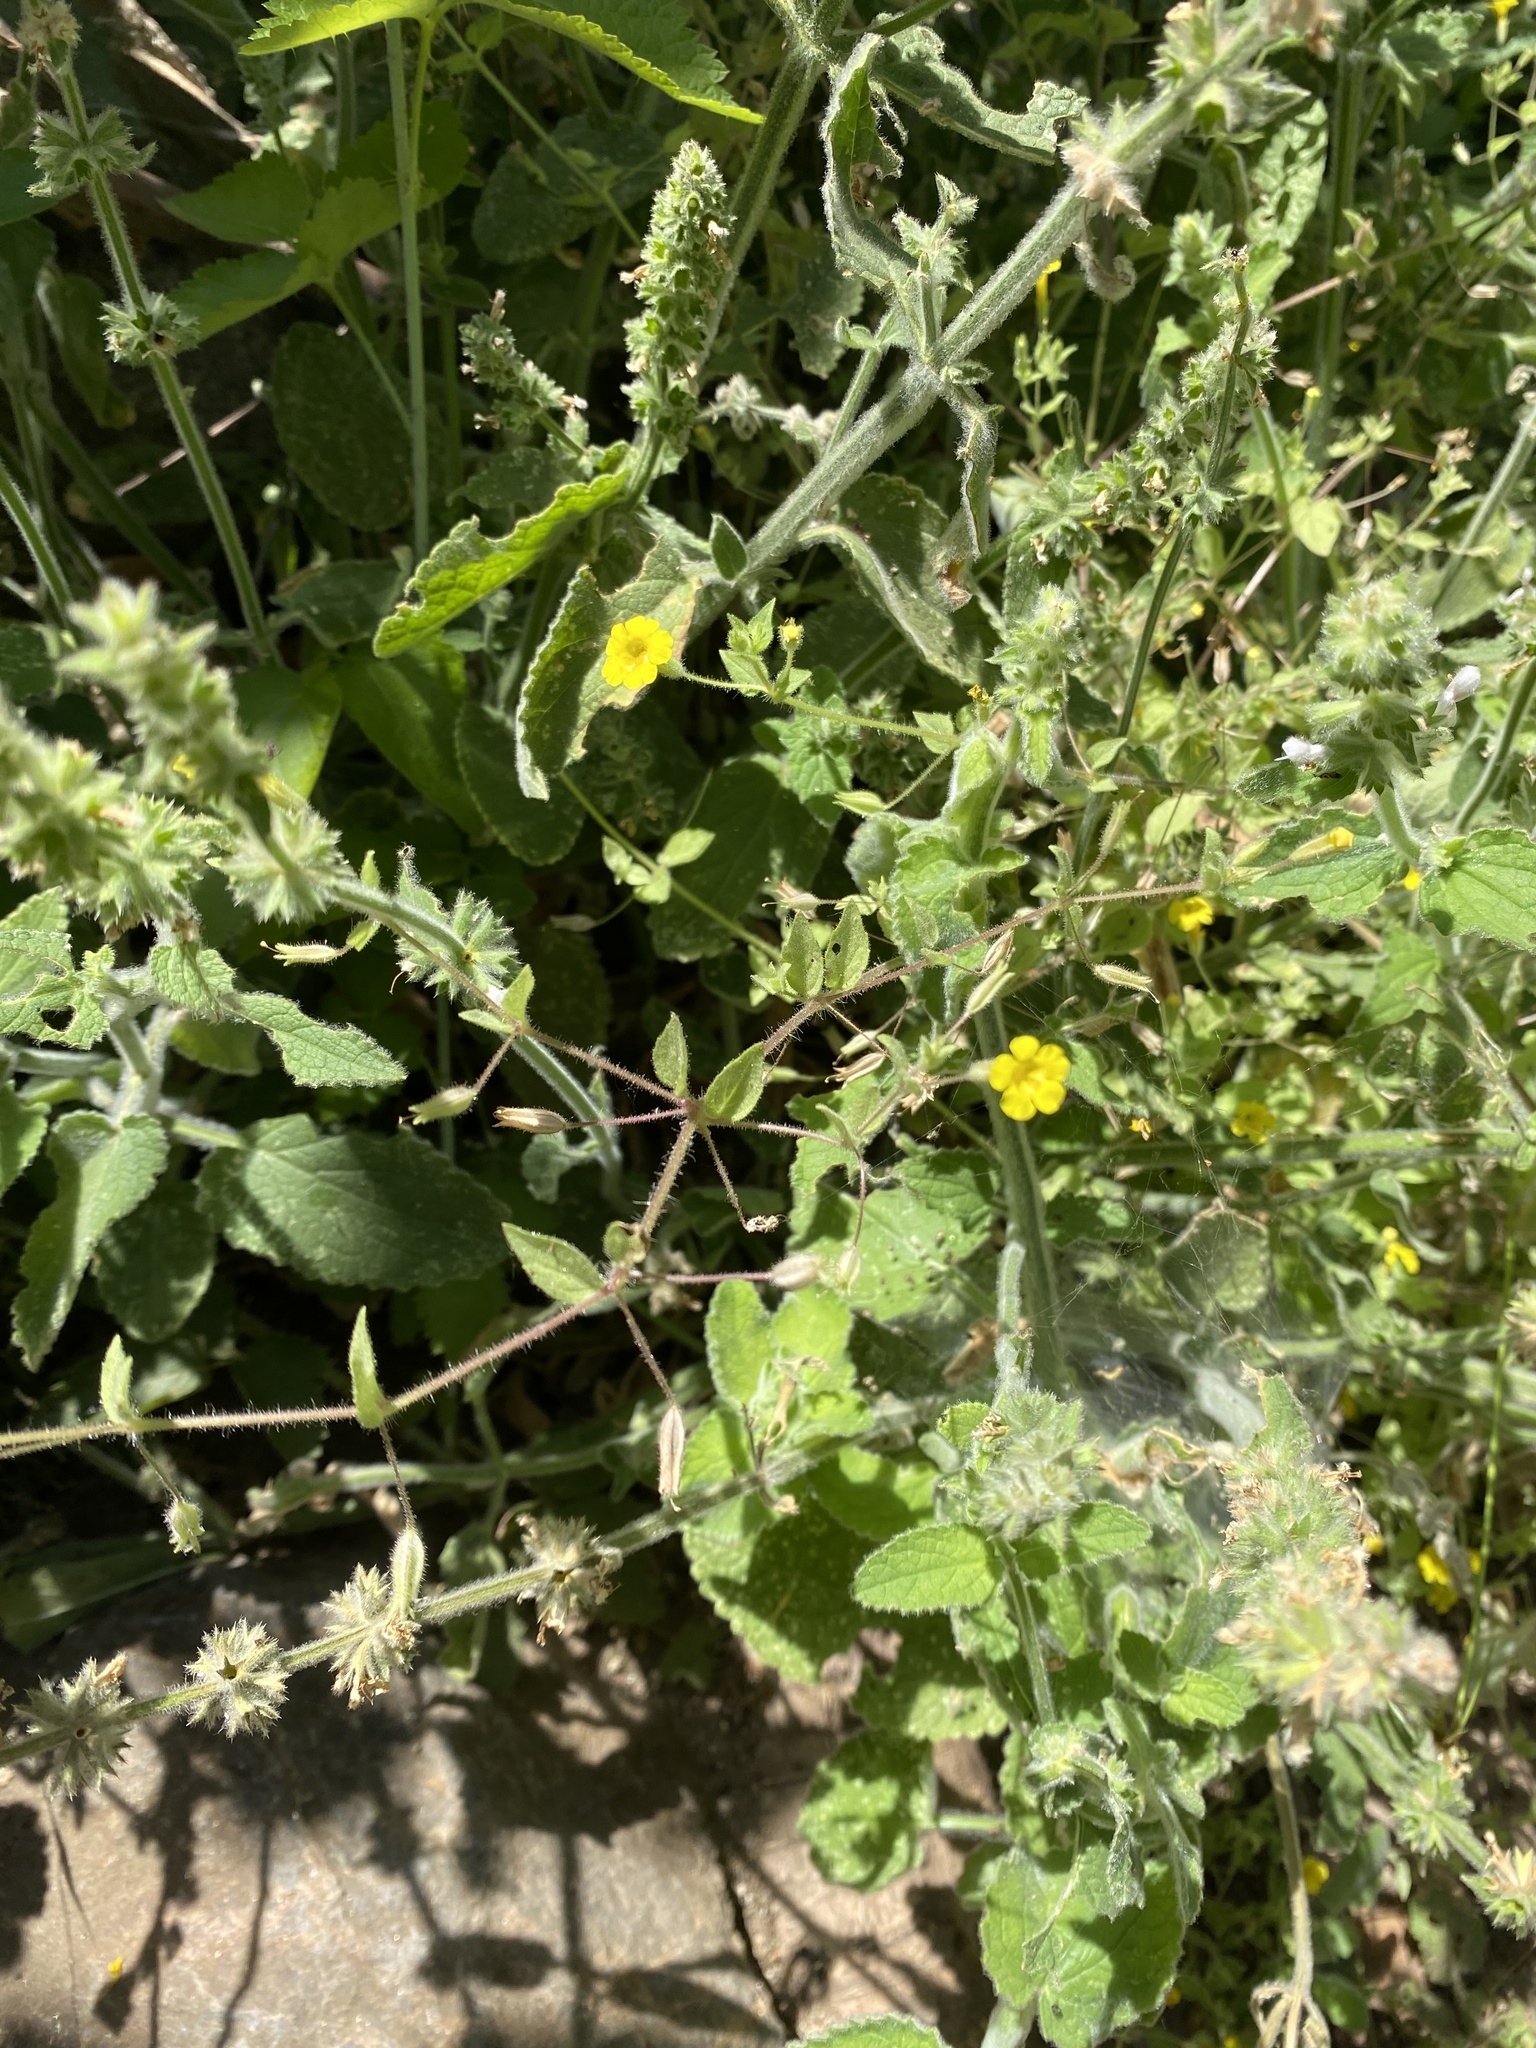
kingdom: Plantae
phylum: Tracheophyta
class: Magnoliopsida
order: Lamiales
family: Phrymaceae
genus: Erythranthe
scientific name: Erythranthe arenaria
